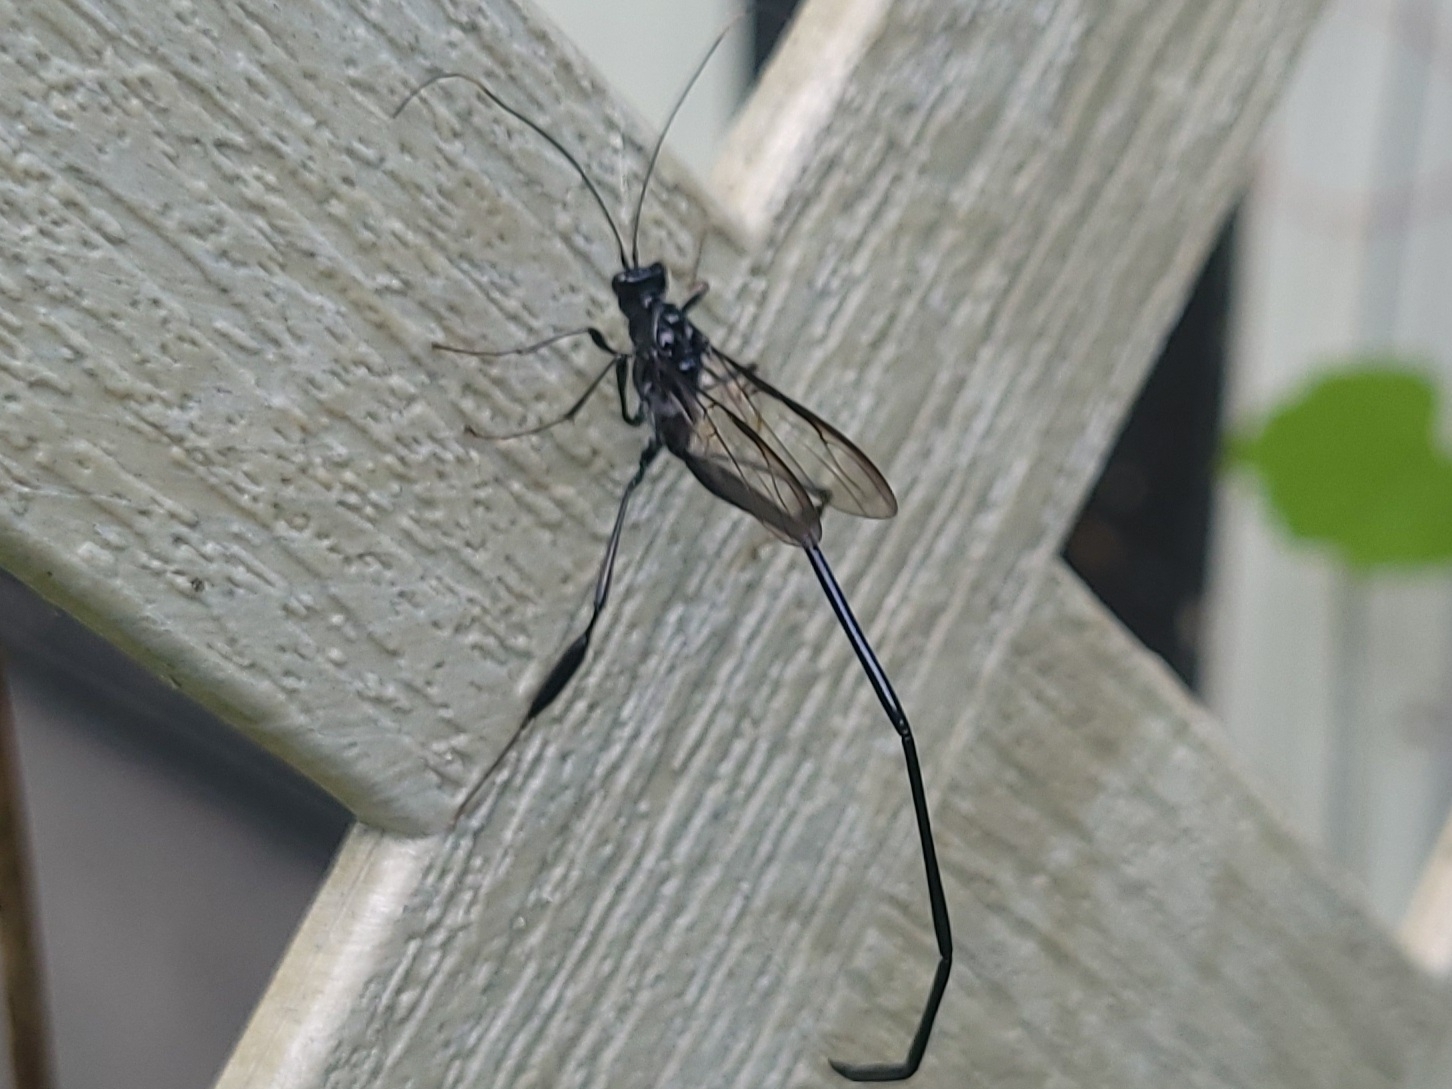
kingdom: Animalia
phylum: Arthropoda
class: Insecta
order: Hymenoptera
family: Pelecinidae
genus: Pelecinus
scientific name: Pelecinus polyturator
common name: American pelecinid wasp
